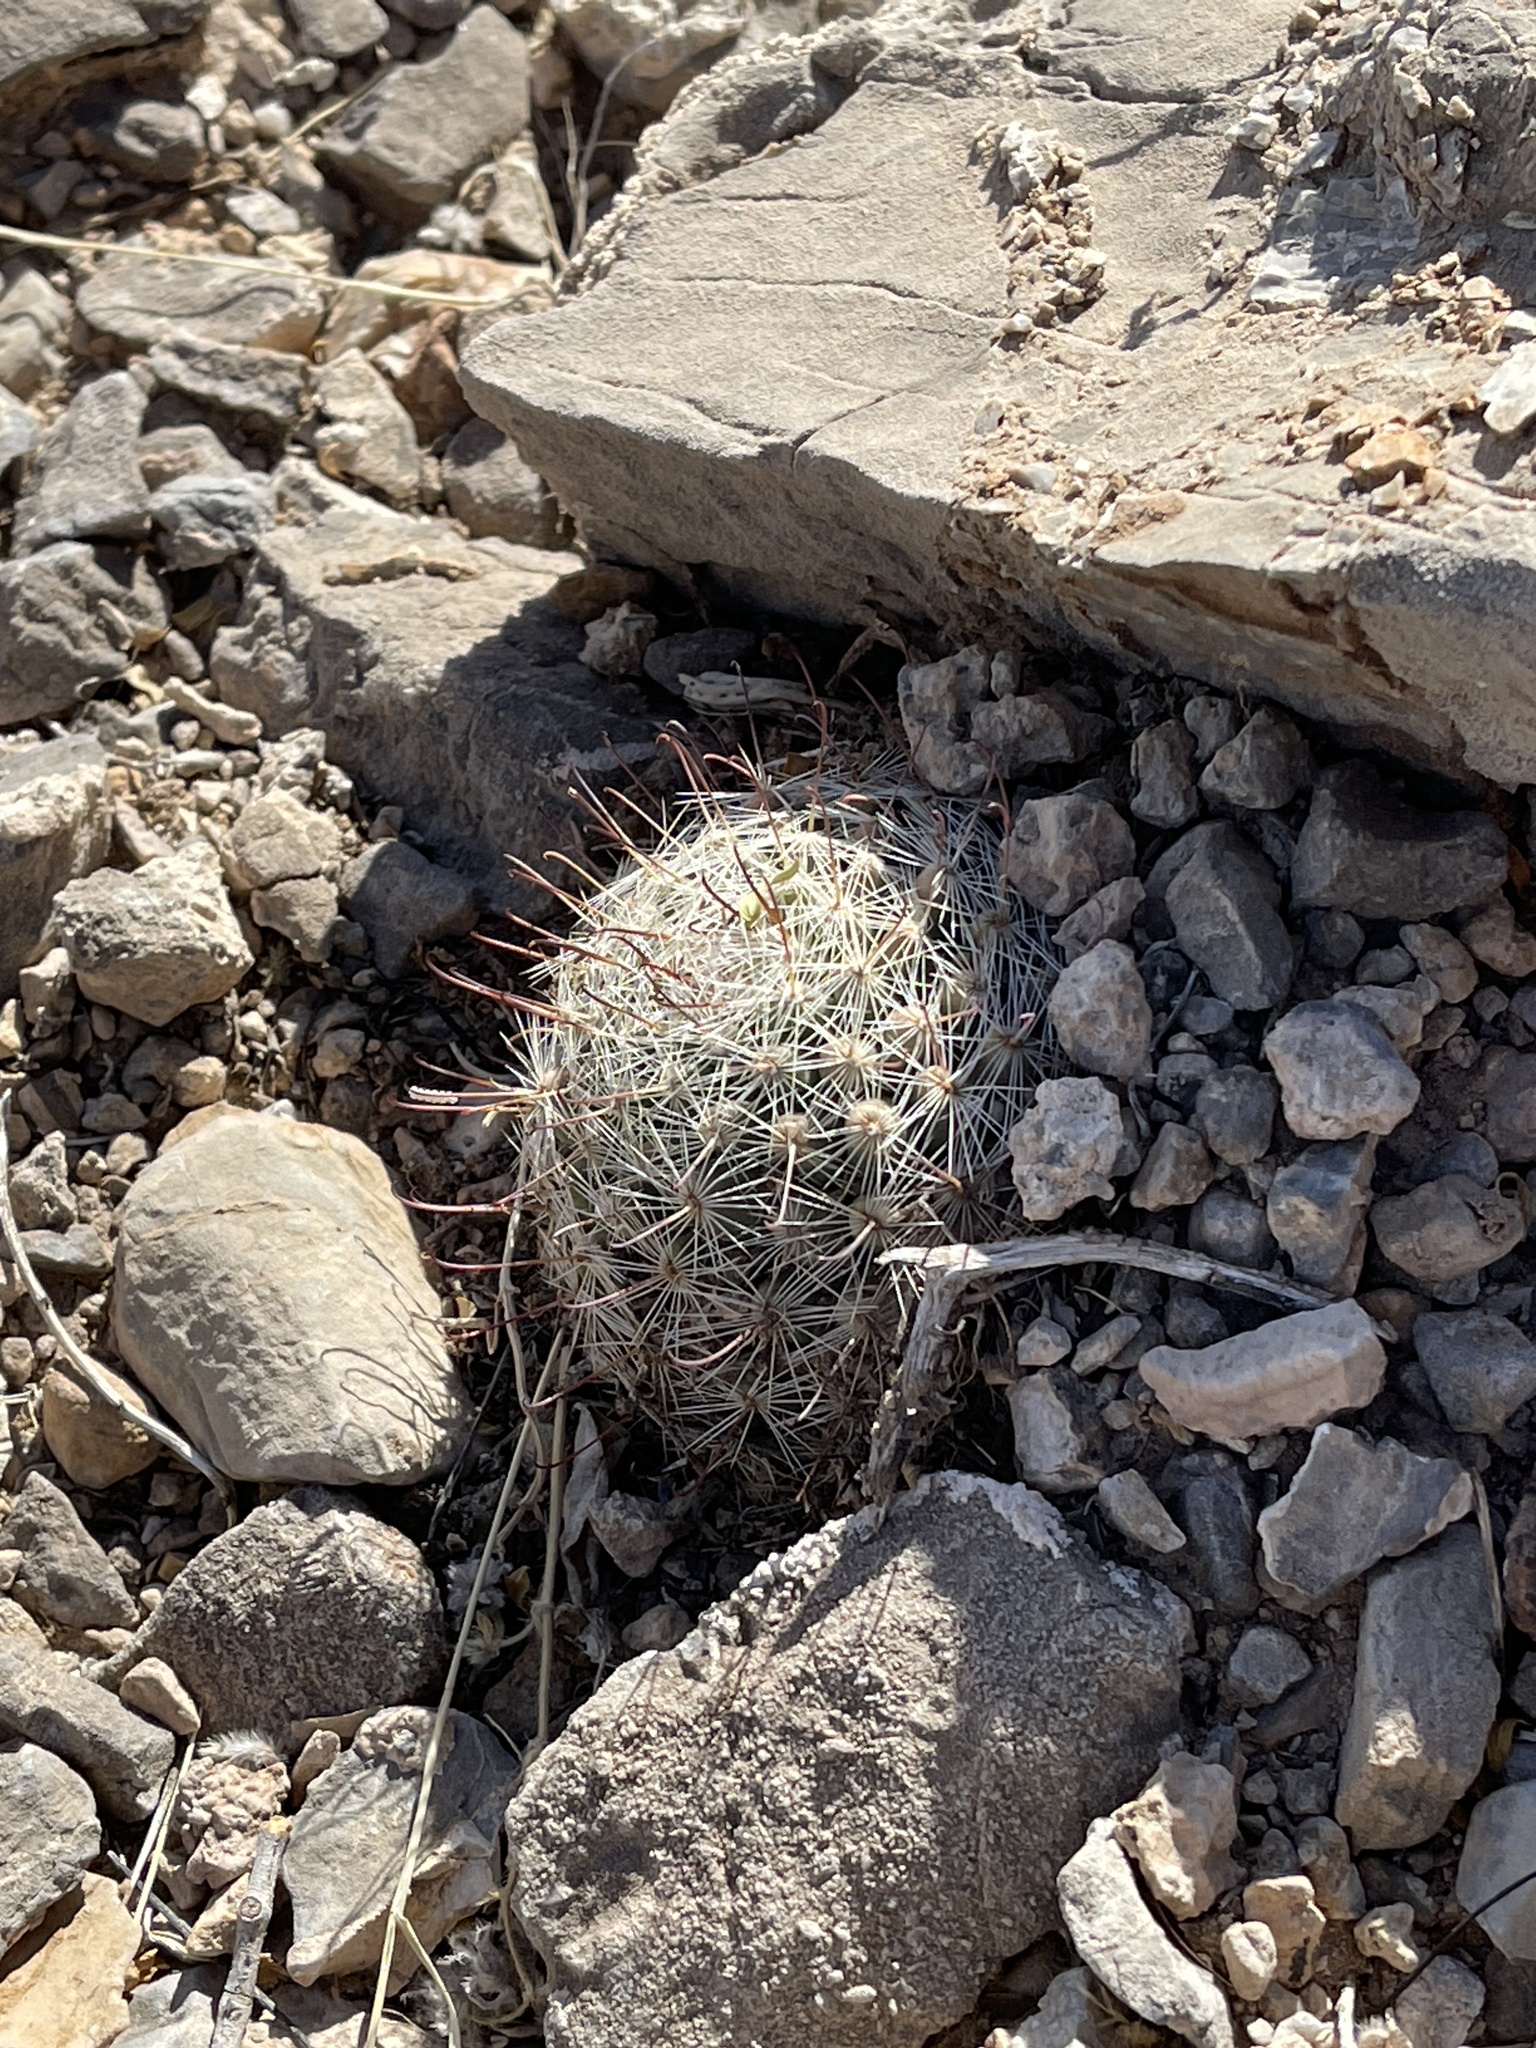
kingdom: Plantae
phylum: Tracheophyta
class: Magnoliopsida
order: Caryophyllales
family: Cactaceae
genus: Cochemiea
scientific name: Cochemiea grahamii
